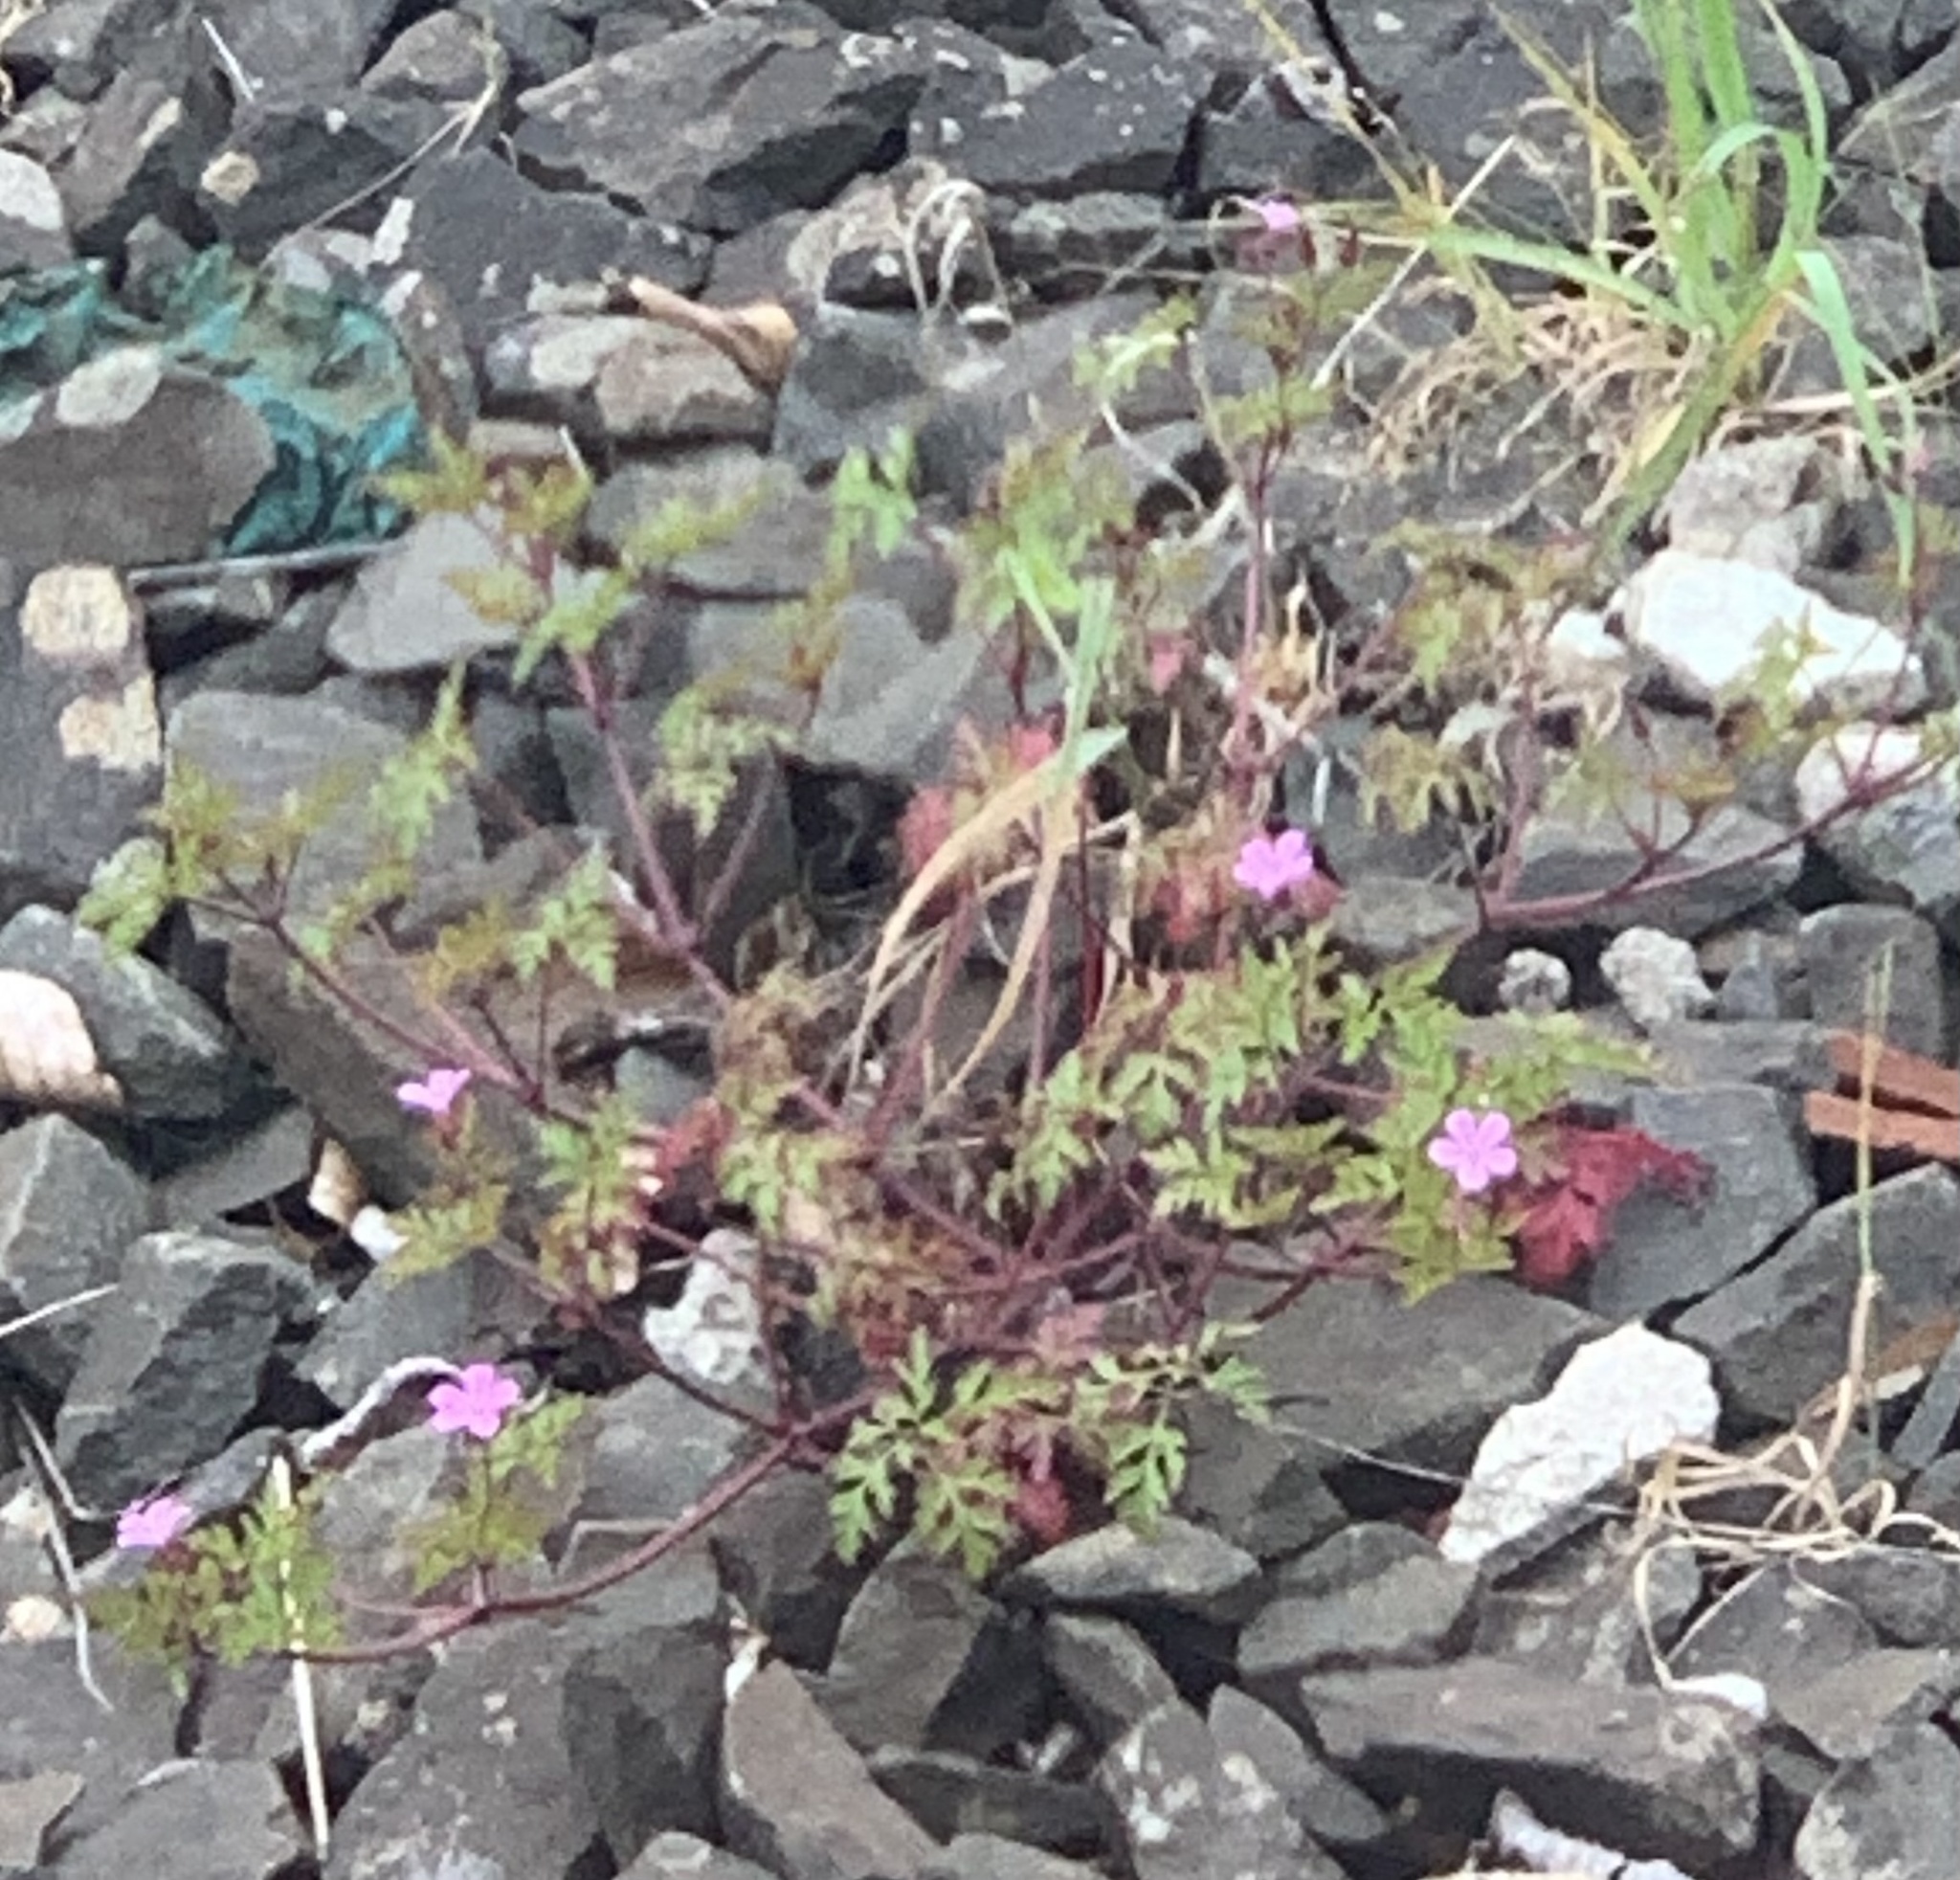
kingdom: Plantae
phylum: Tracheophyta
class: Magnoliopsida
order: Geraniales
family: Geraniaceae
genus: Geranium
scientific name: Geranium robertianum
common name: Herb-robert
